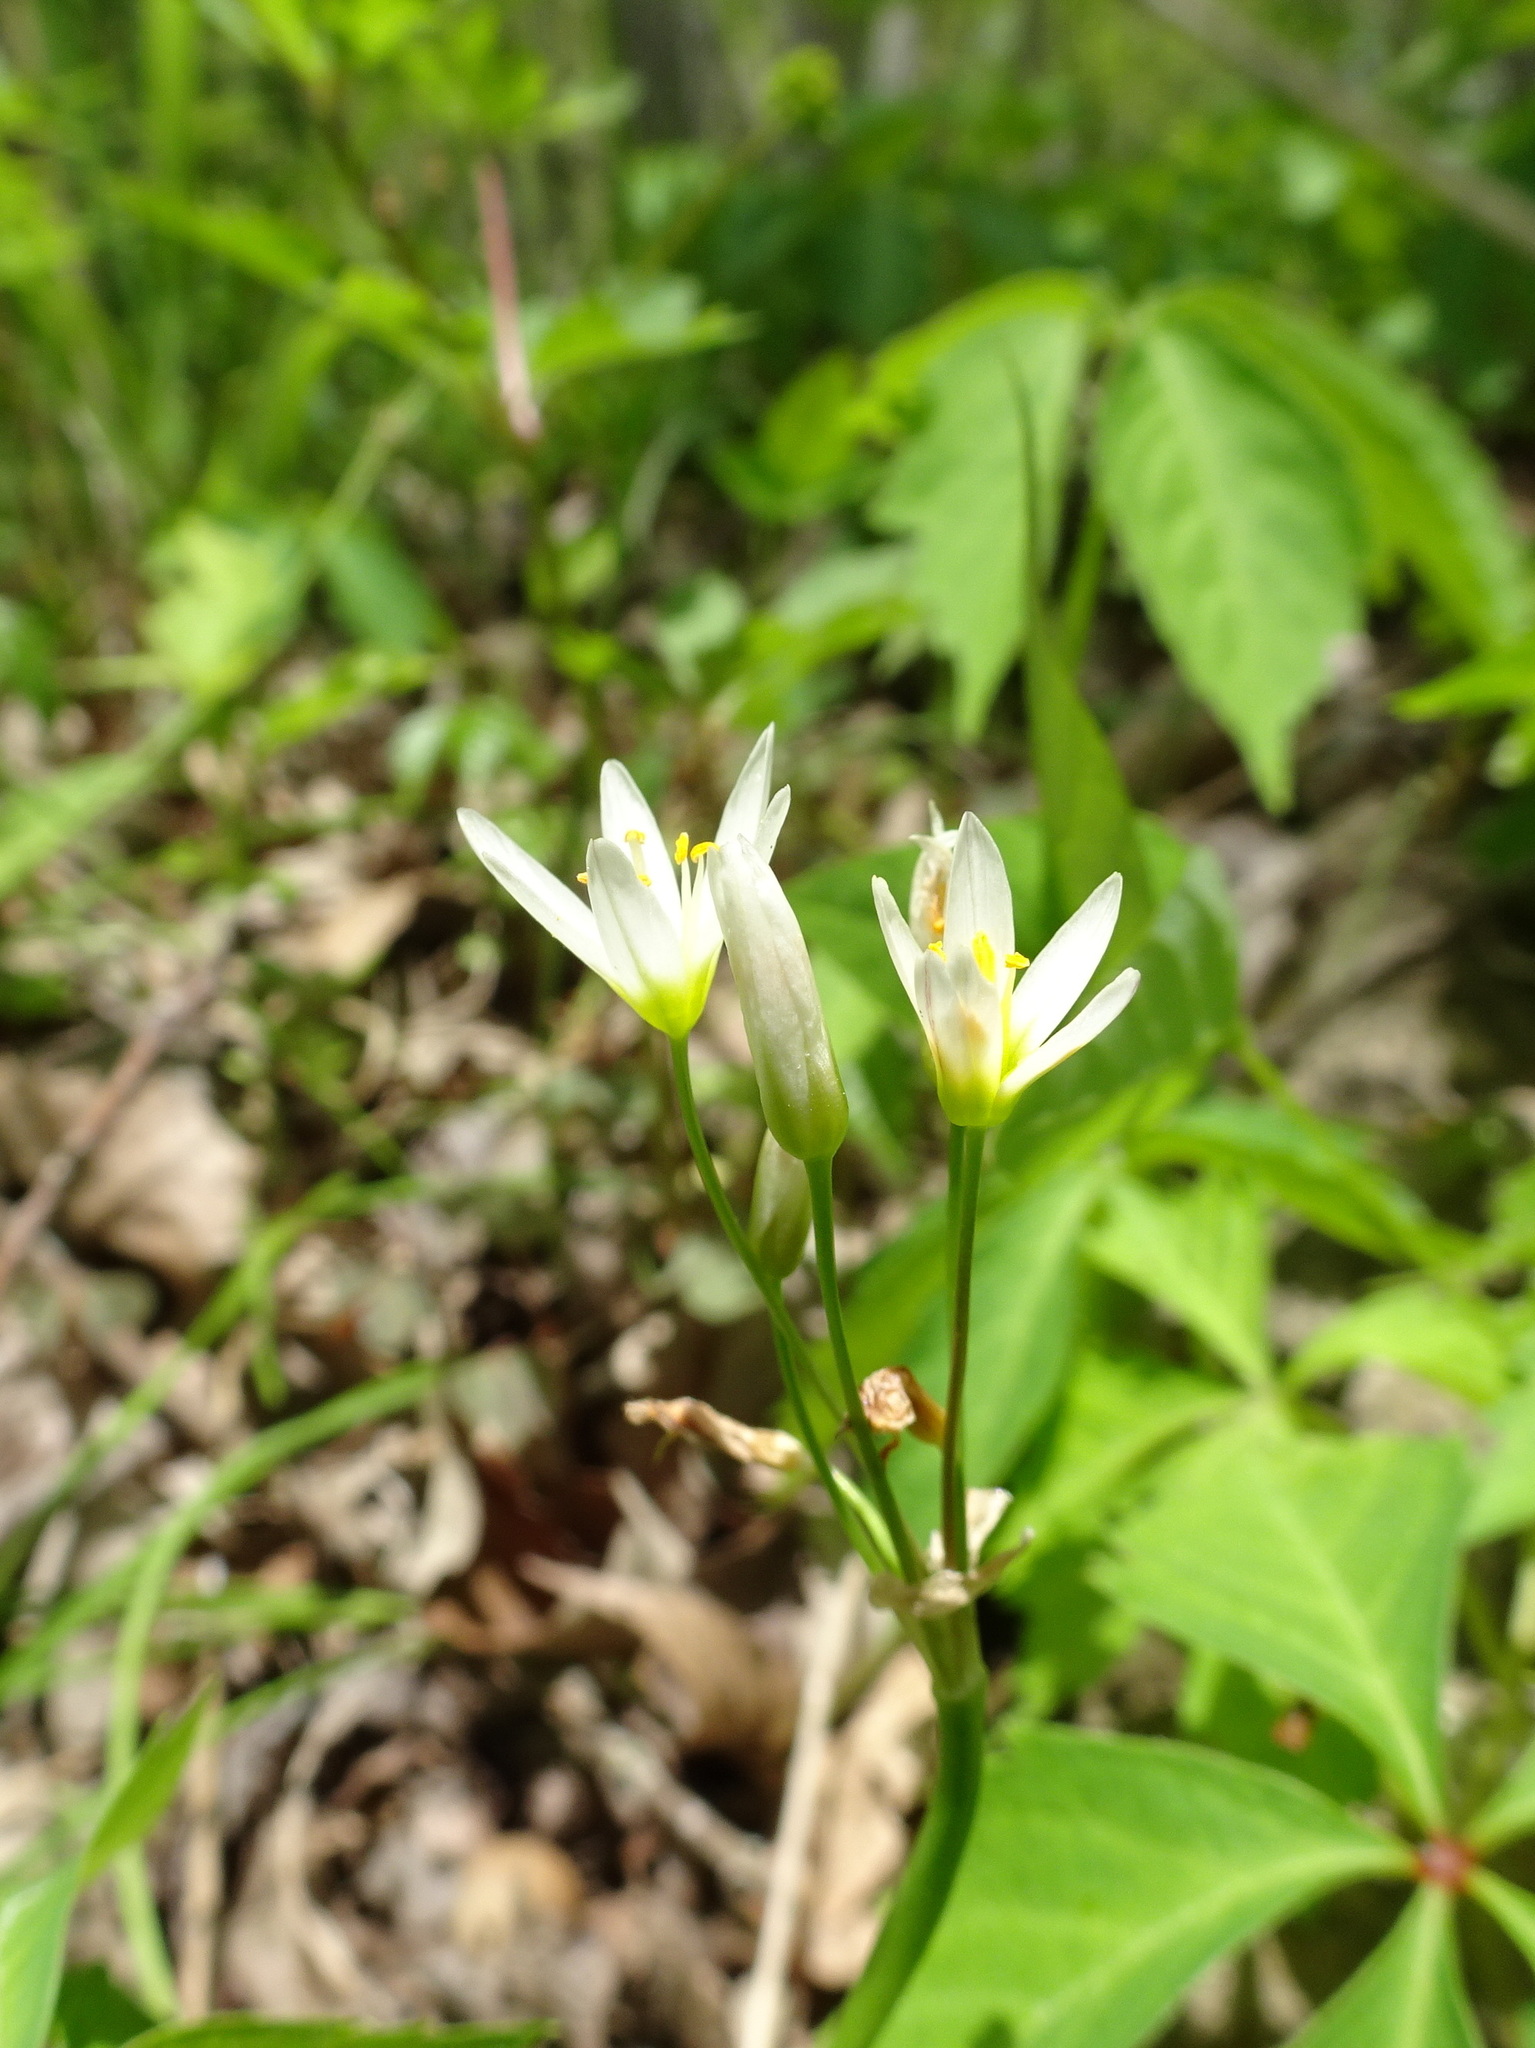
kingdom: Plantae
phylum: Tracheophyta
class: Liliopsida
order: Asparagales
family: Amaryllidaceae
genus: Nothoscordum
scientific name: Nothoscordum bivalve
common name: Crow-poison
